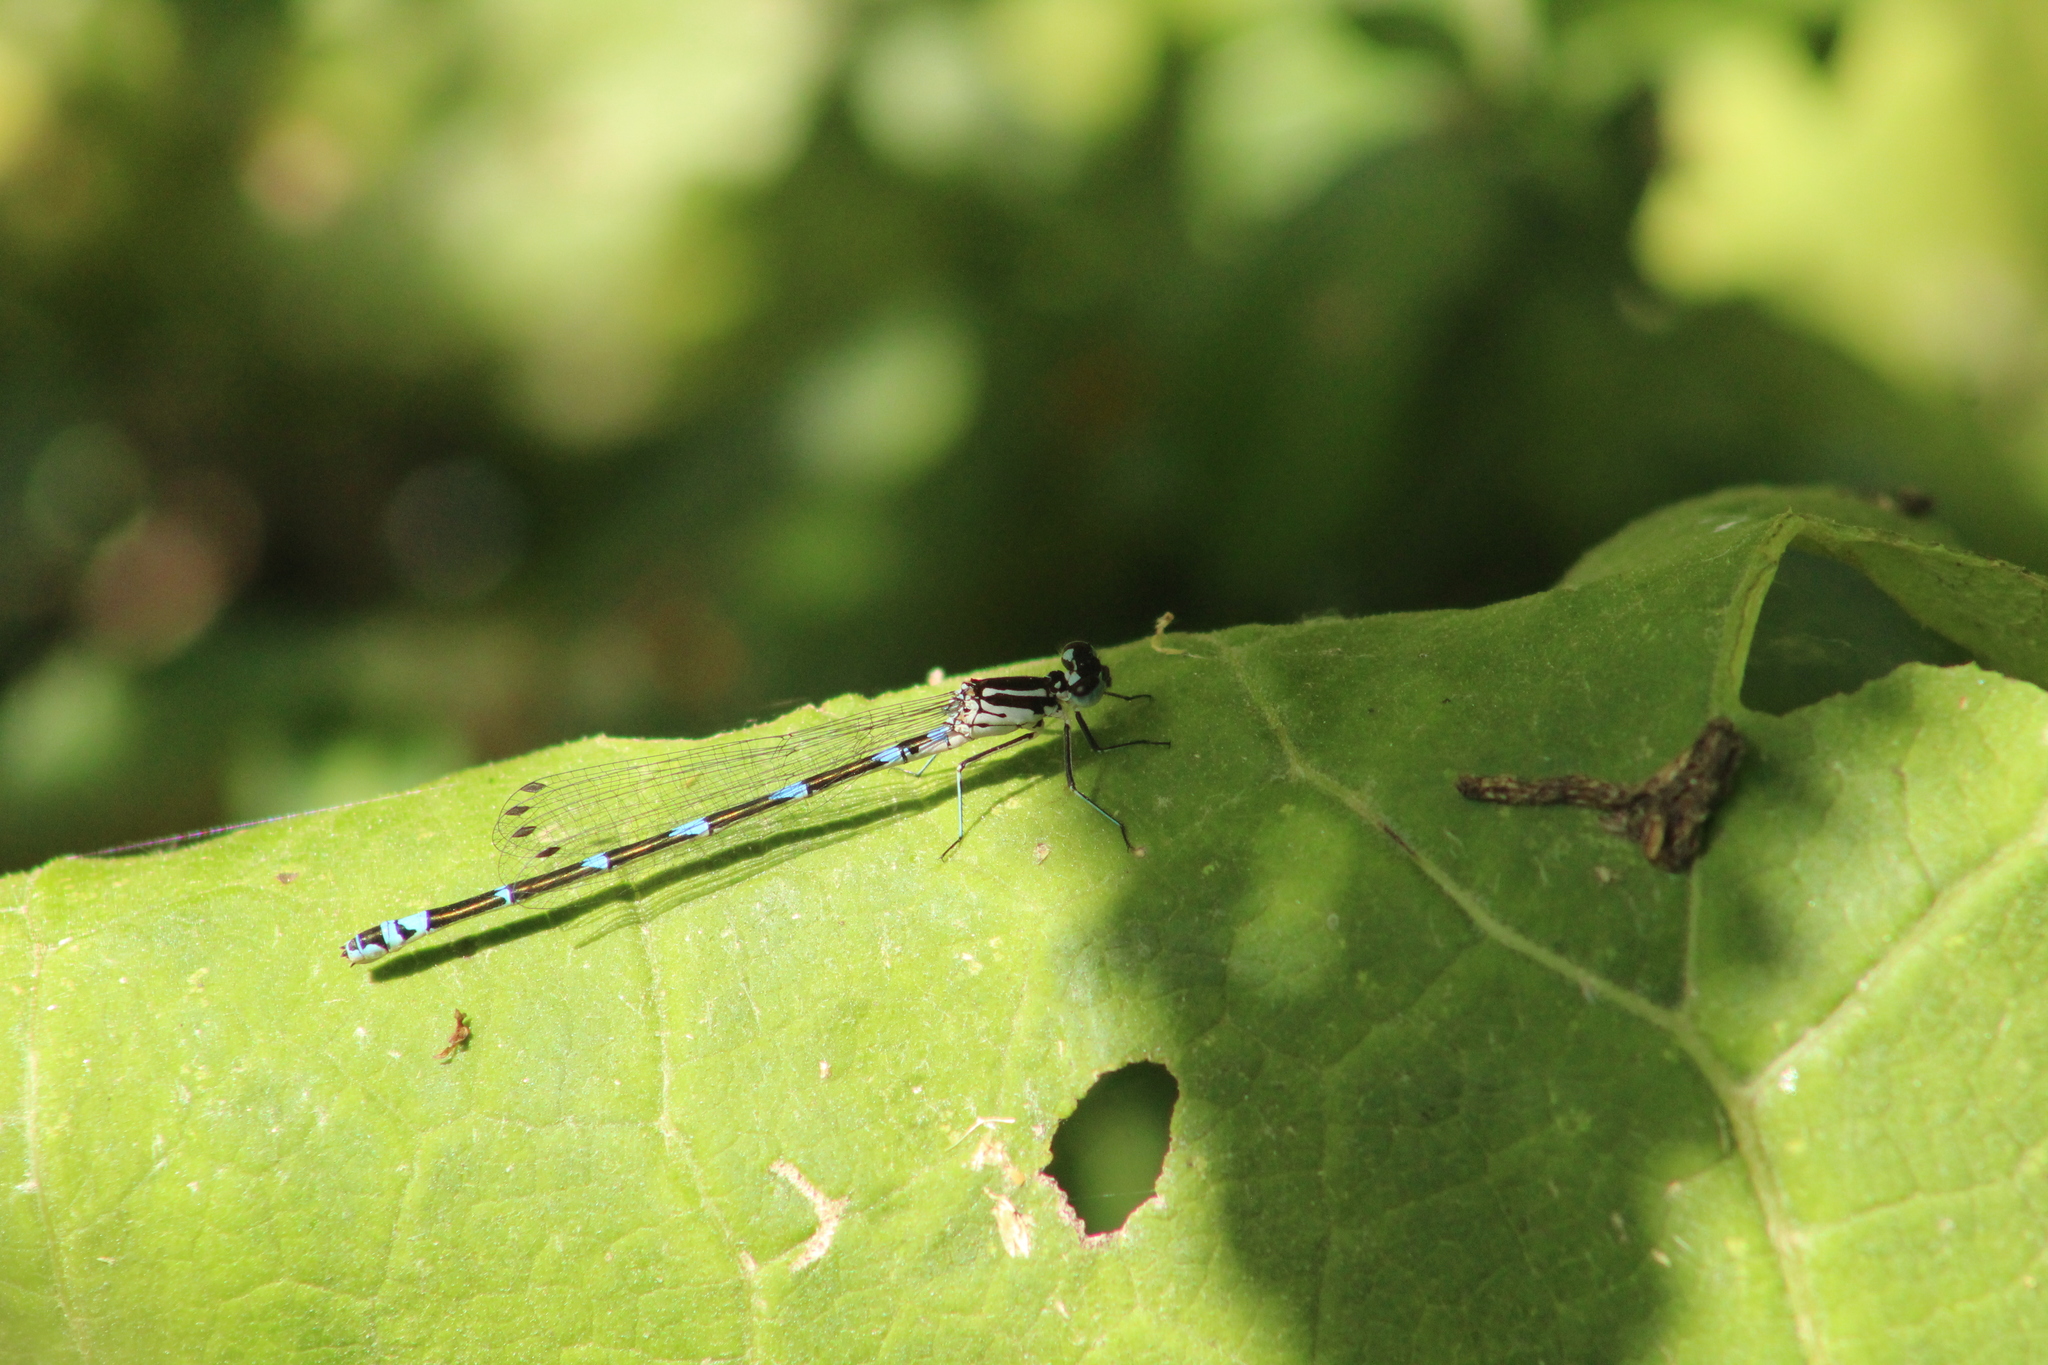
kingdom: Animalia
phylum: Arthropoda
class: Insecta
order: Odonata
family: Coenagrionidae
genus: Coenagrion
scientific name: Coenagrion pulchellum
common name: Variable bluet
